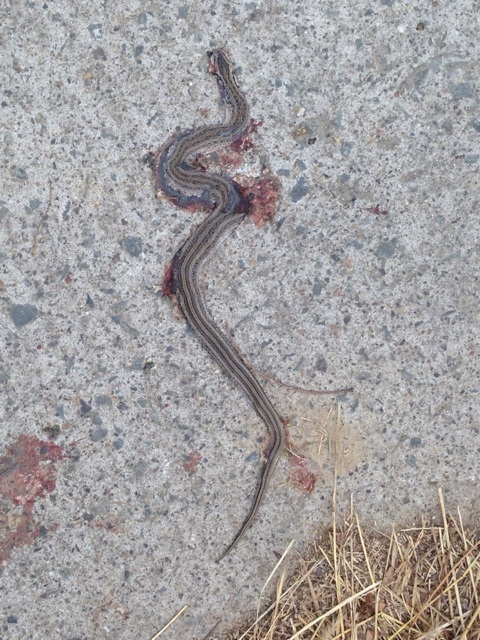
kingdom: Animalia
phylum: Chordata
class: Squamata
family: Colubridae
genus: Oocatochus
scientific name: Oocatochus rufodorsatus
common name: Frog-eating rat snake
